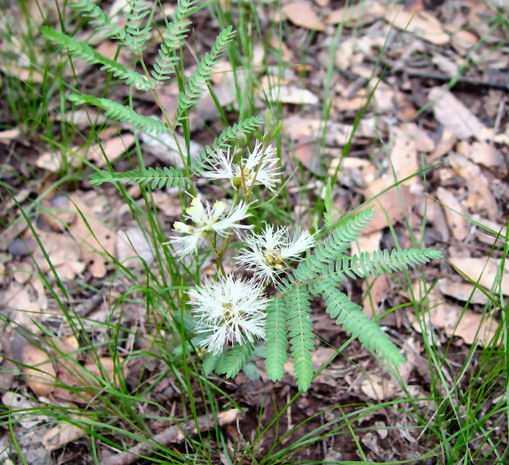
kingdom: Plantae
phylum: Tracheophyta
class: Magnoliopsida
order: Fabales
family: Fabaceae
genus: Calliandra
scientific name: Calliandra humilis
